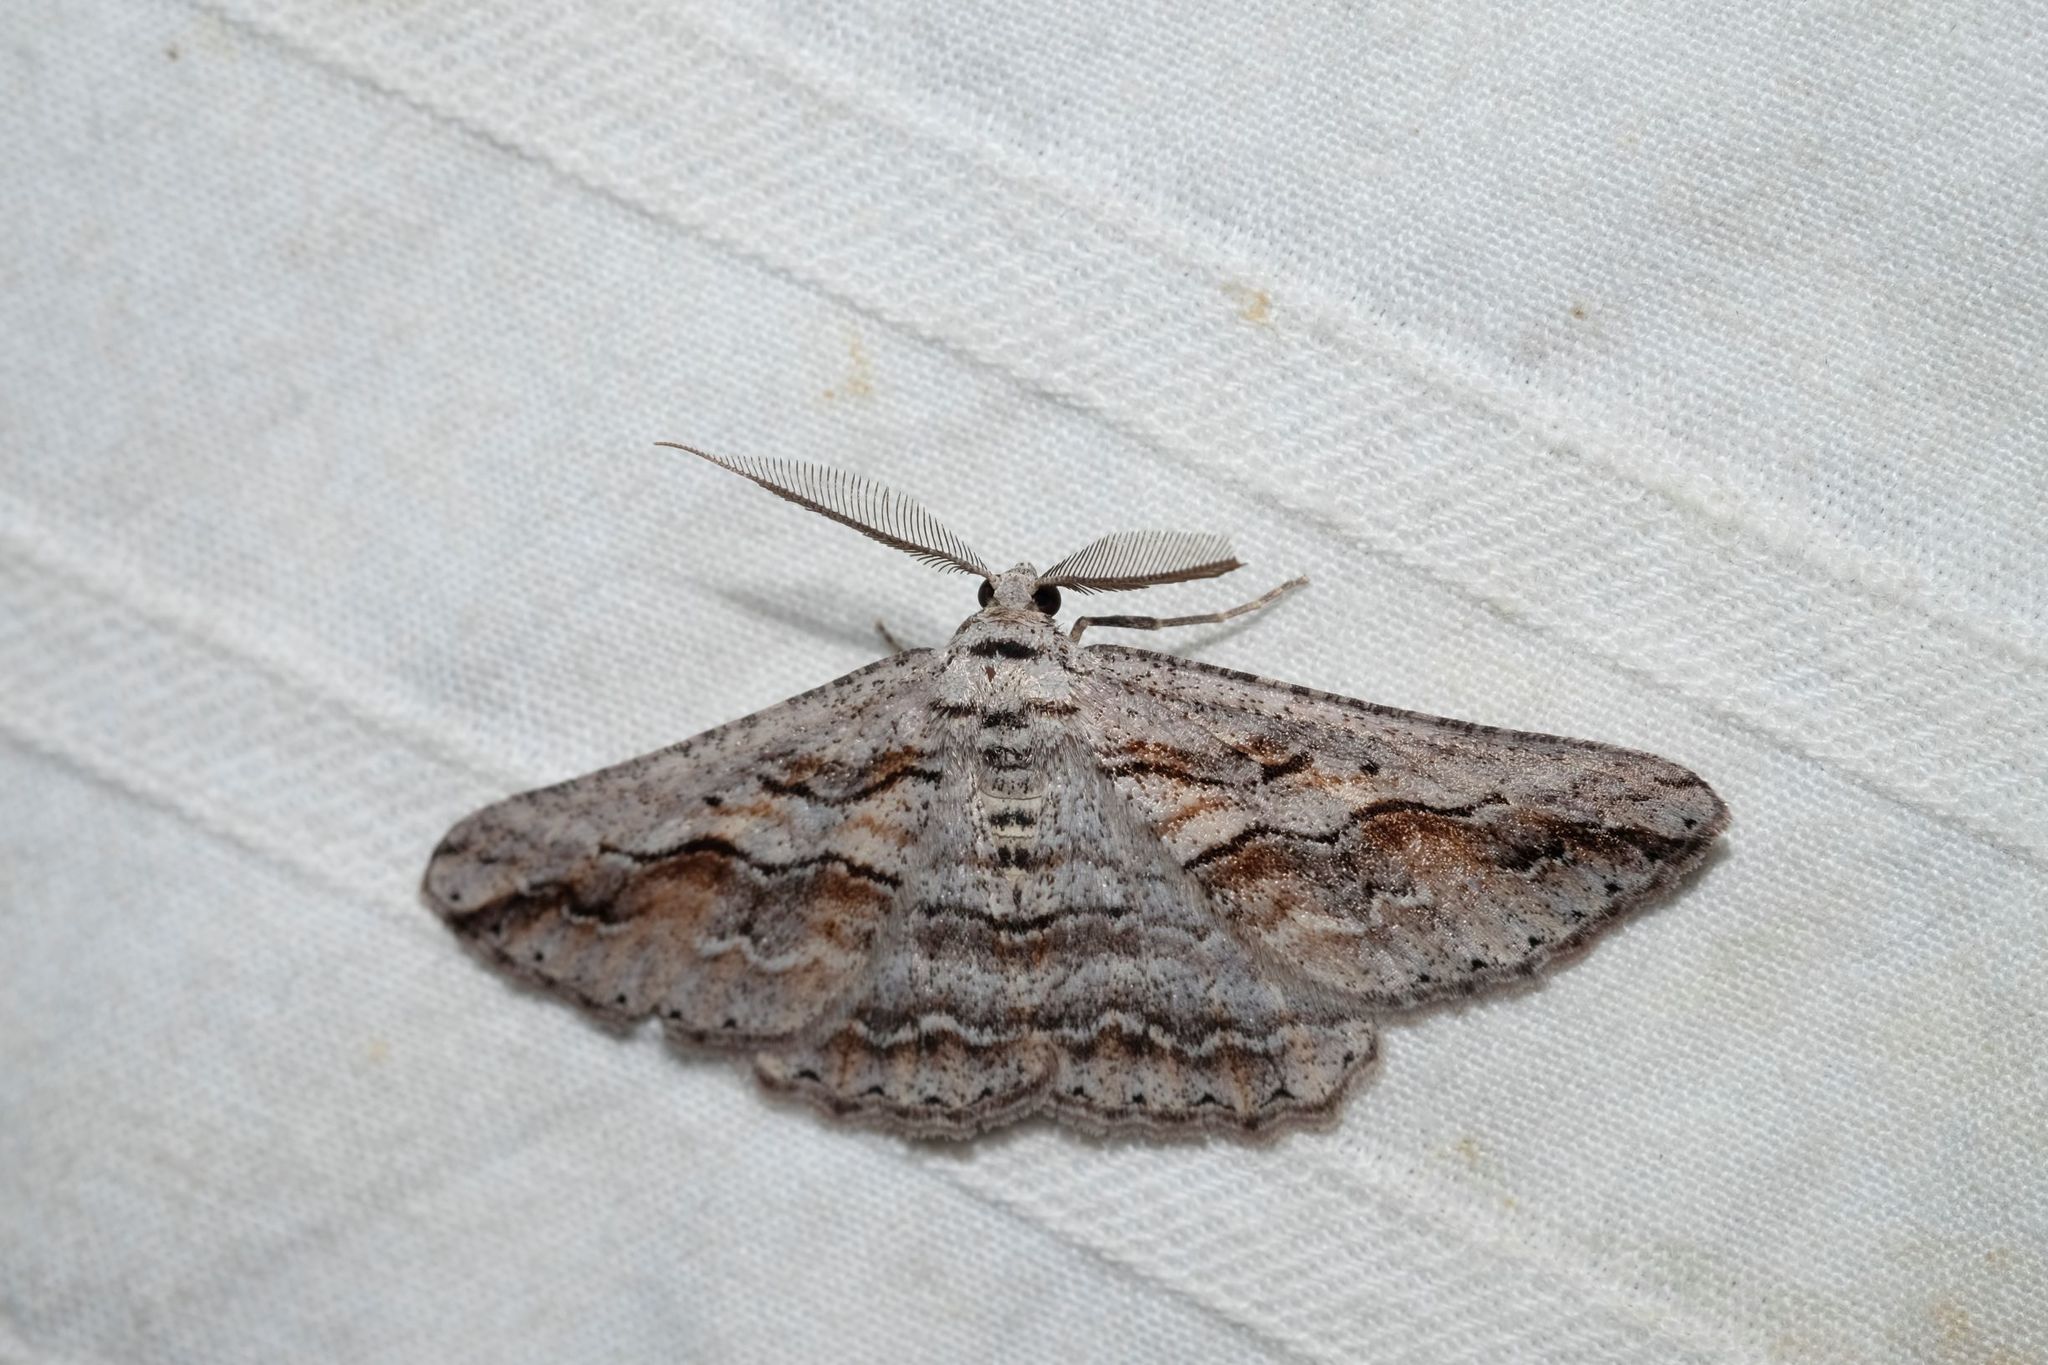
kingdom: Animalia
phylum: Arthropoda
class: Insecta
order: Lepidoptera
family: Geometridae
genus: Syneora
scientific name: Syneora mundifera
